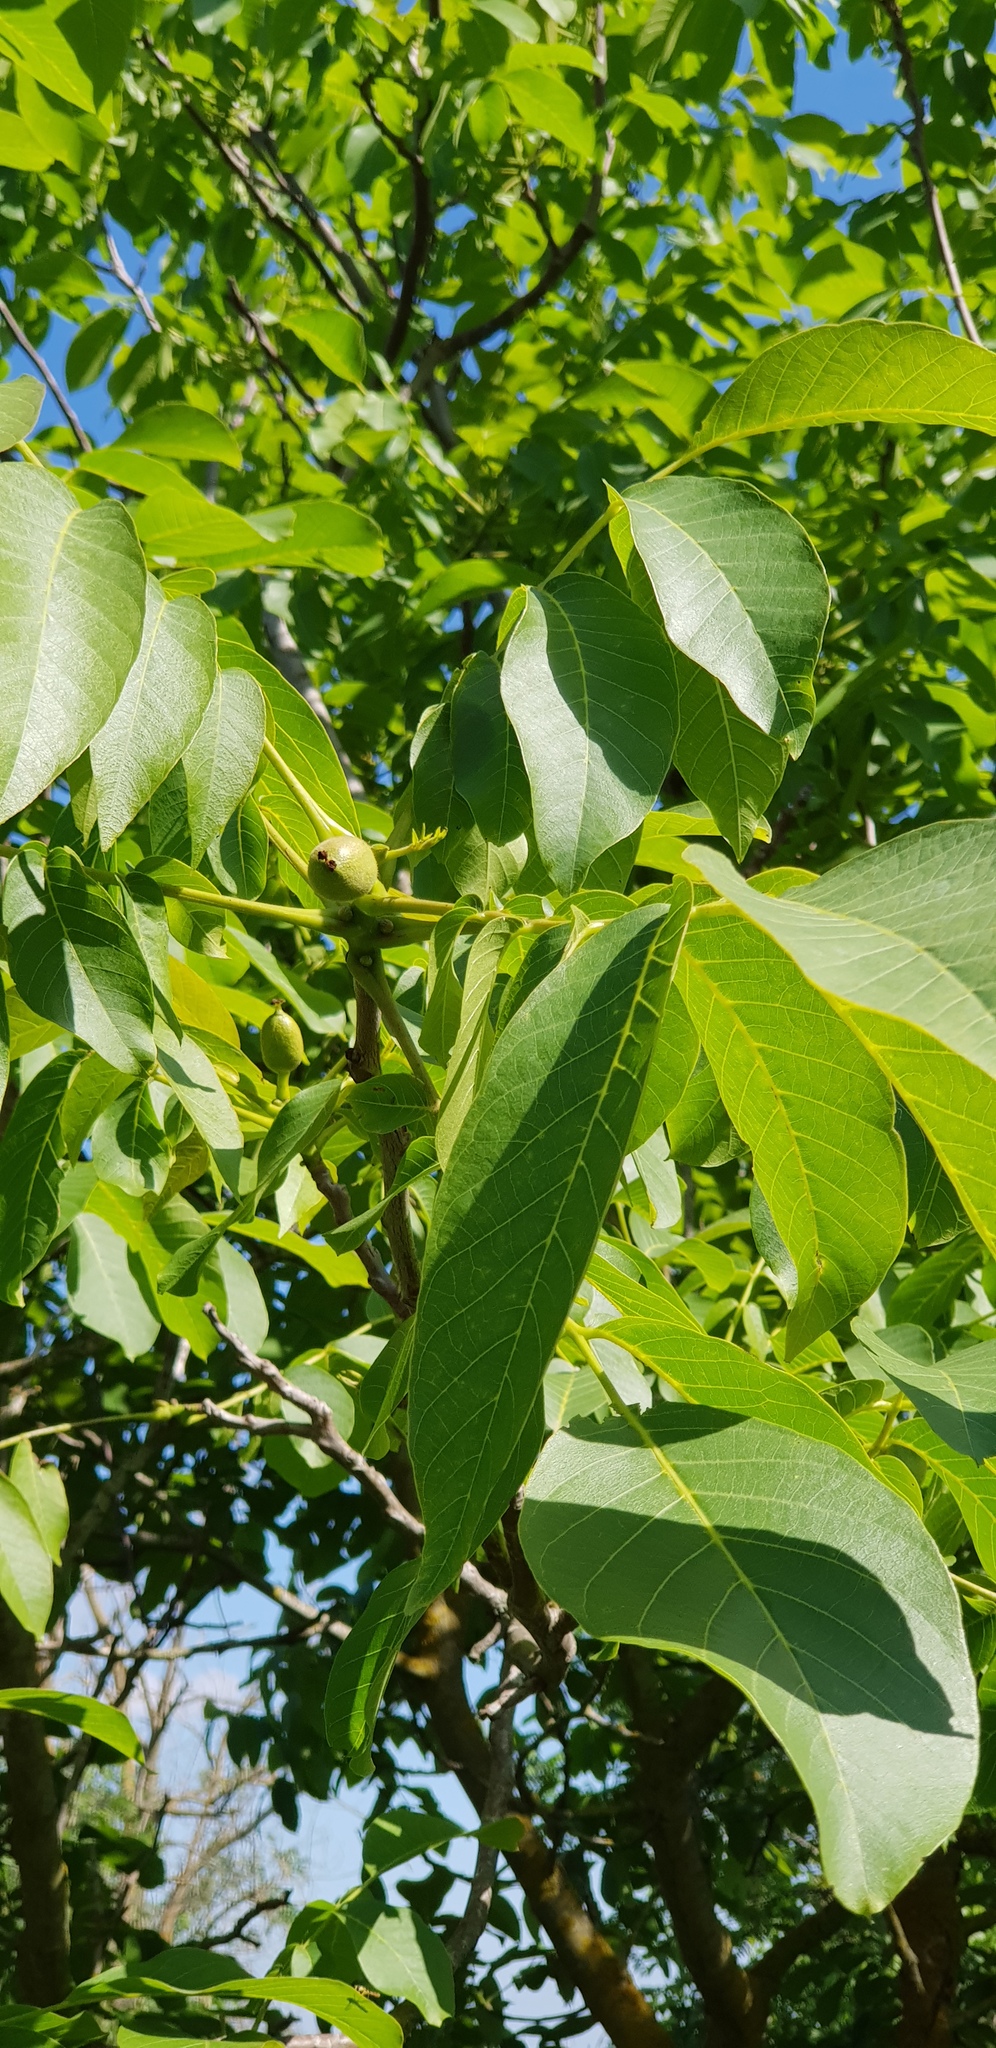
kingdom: Plantae
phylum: Tracheophyta
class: Magnoliopsida
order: Fagales
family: Juglandaceae
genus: Juglans
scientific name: Juglans regia
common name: Walnut
